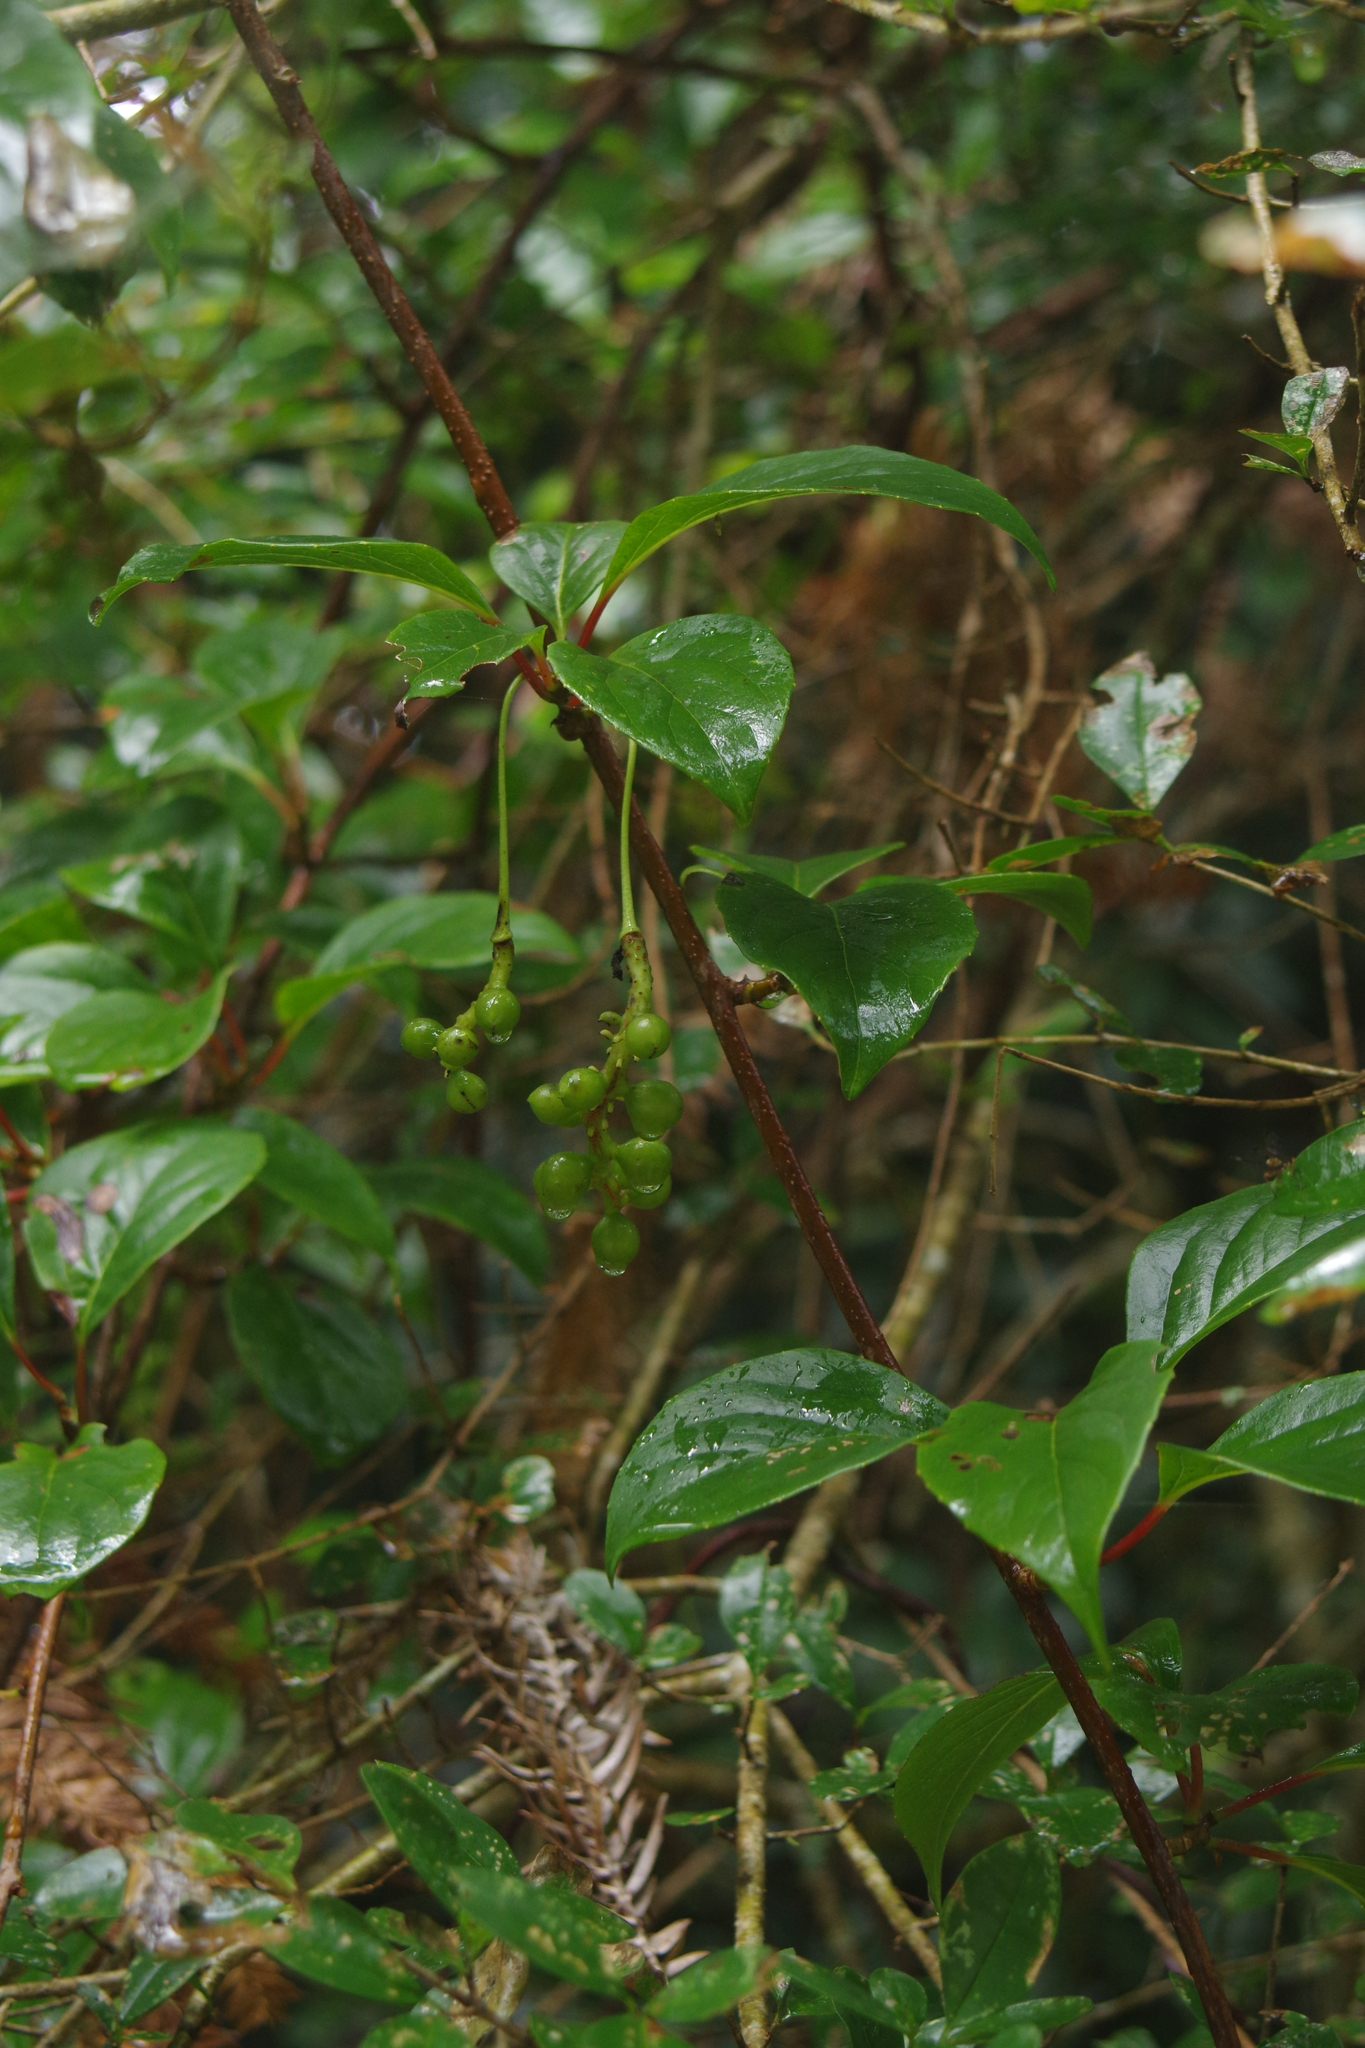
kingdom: Plantae
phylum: Tracheophyta
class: Magnoliopsida
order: Austrobaileyales
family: Schisandraceae
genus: Schisandra
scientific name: Schisandra arisanensis
